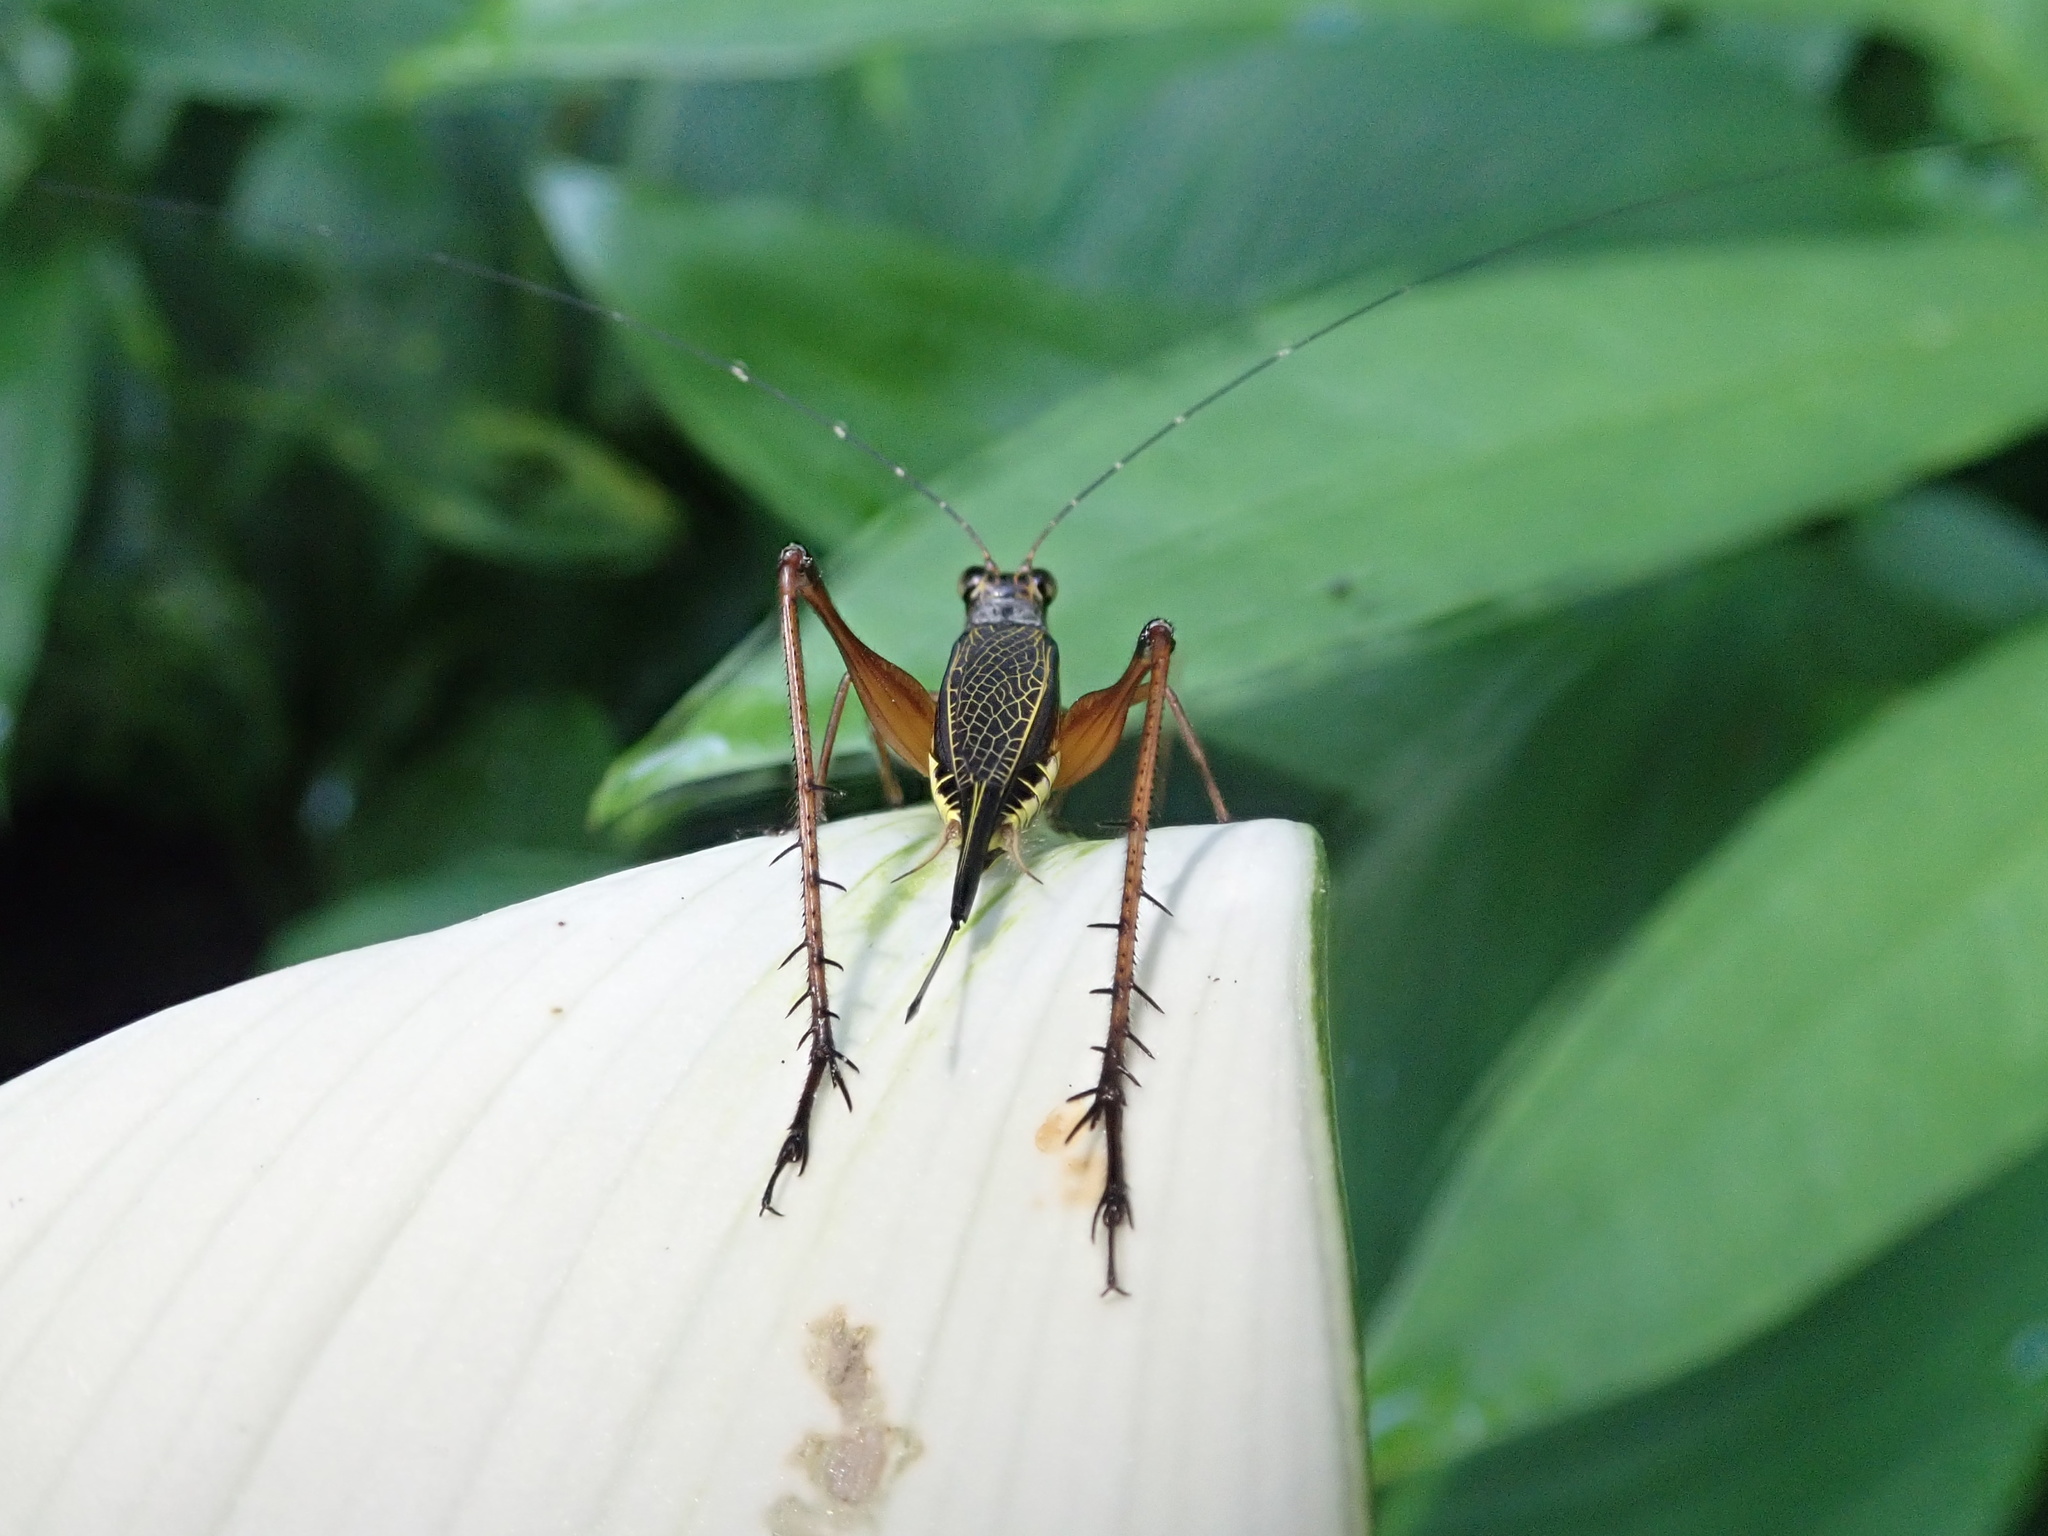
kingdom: Animalia
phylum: Arthropoda
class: Insecta
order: Orthoptera
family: Gryllidae
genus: Nisitrus
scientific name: Nisitrus malaya
